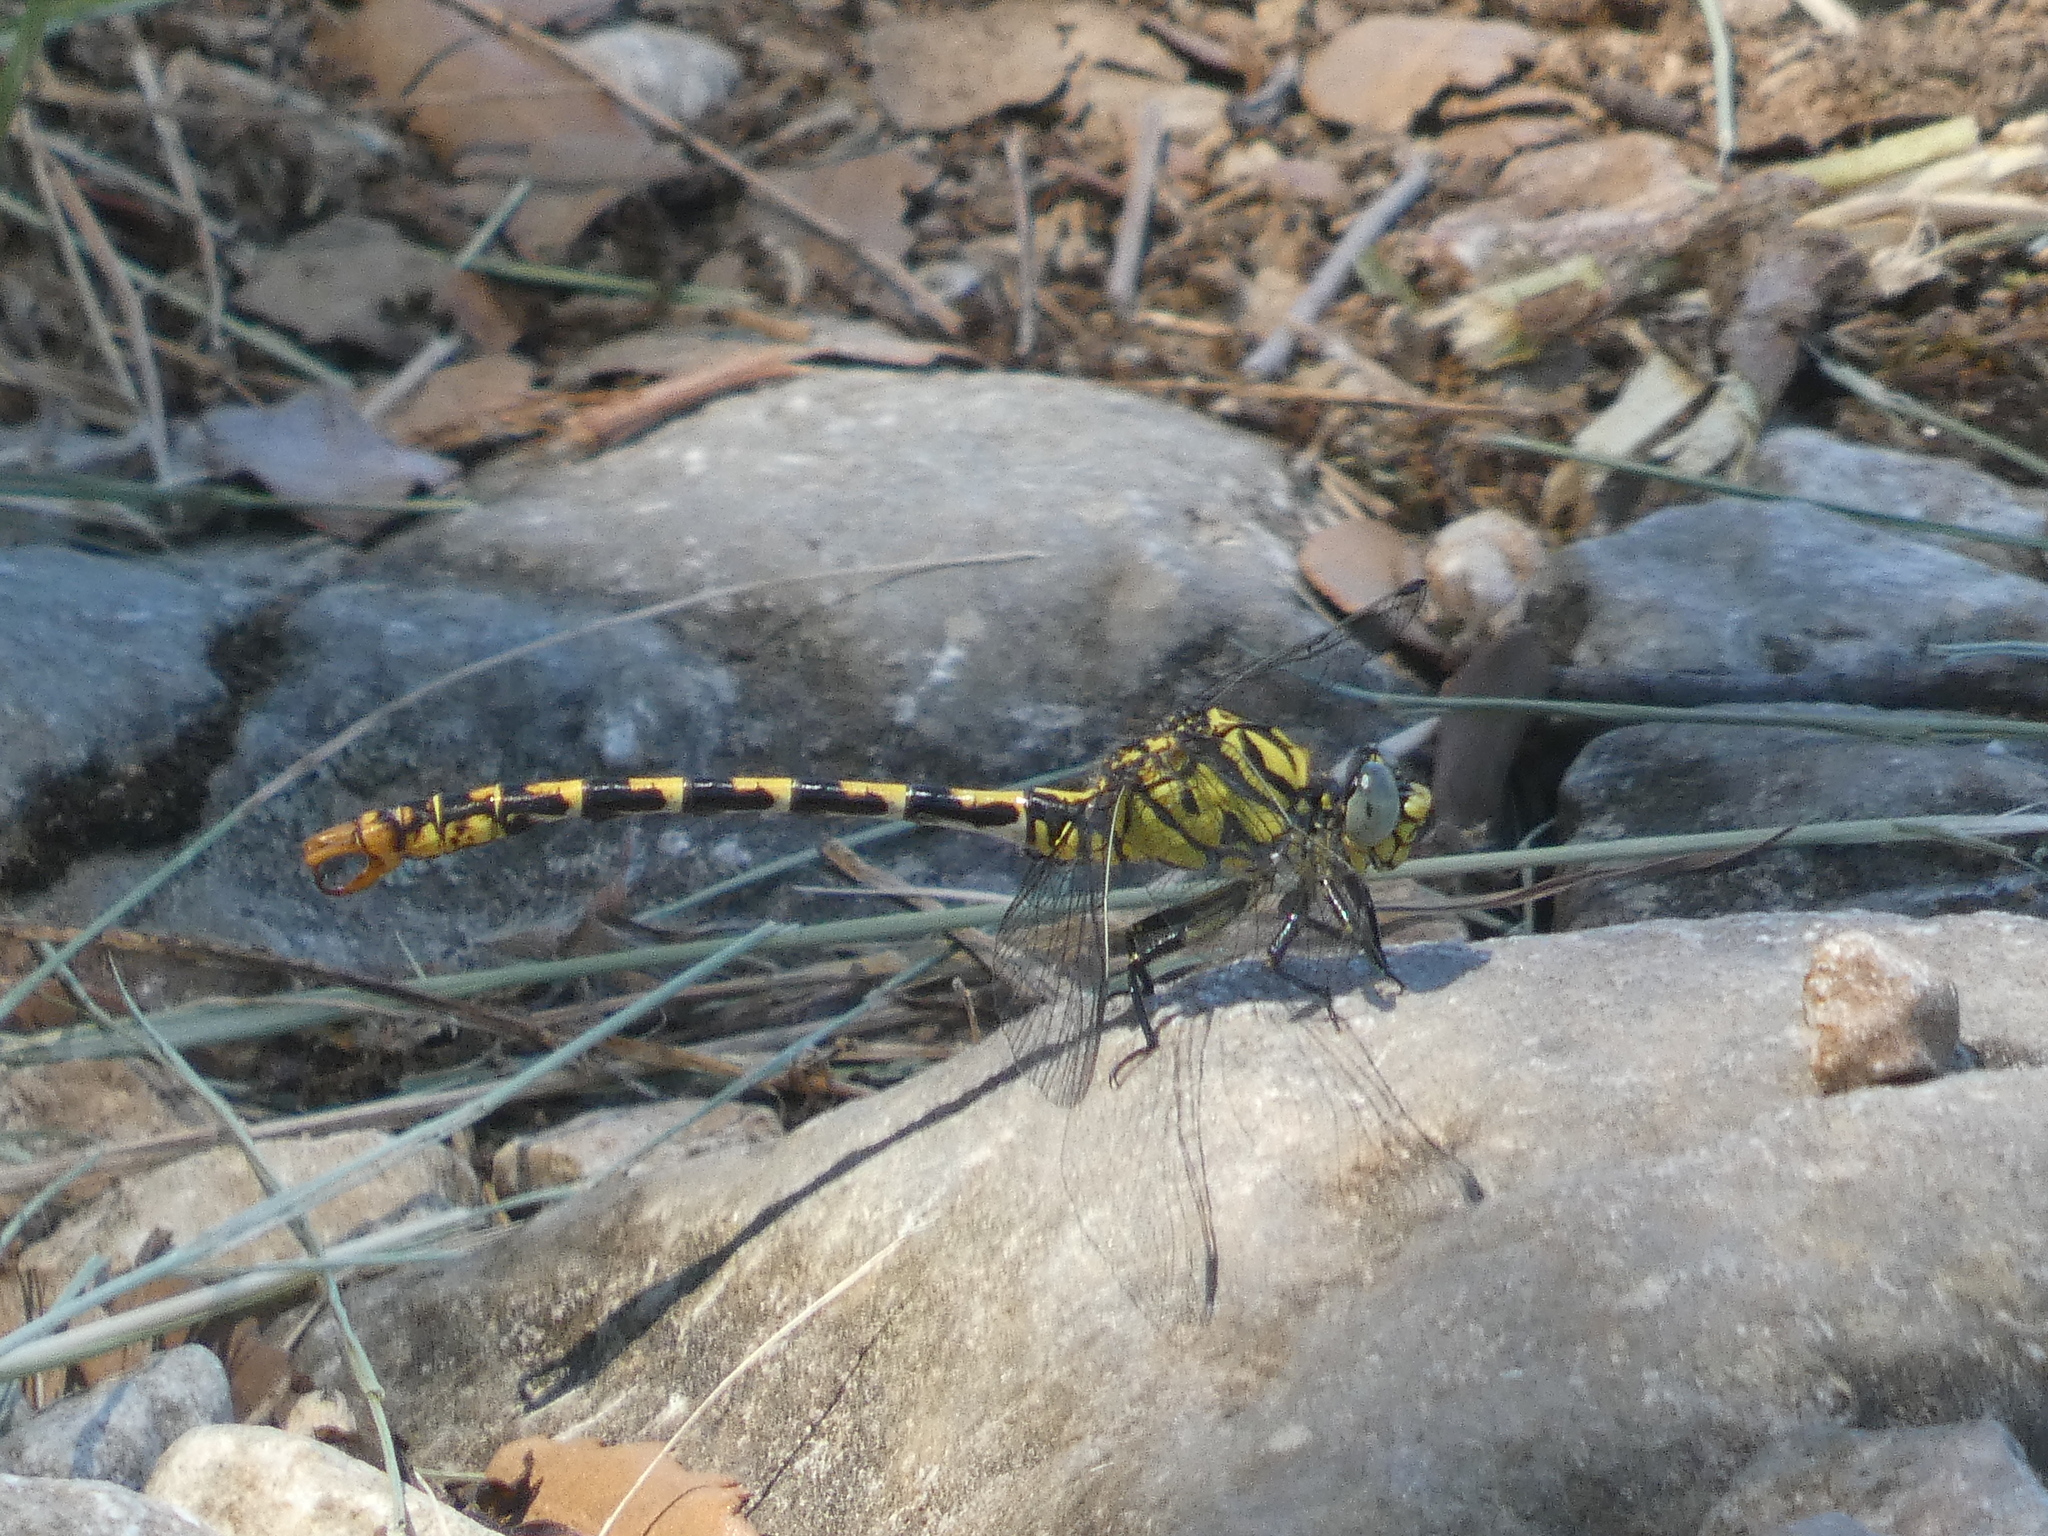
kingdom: Animalia
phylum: Arthropoda
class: Insecta
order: Odonata
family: Gomphidae
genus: Onychogomphus
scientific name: Onychogomphus forcipatus
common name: Small pincertail
